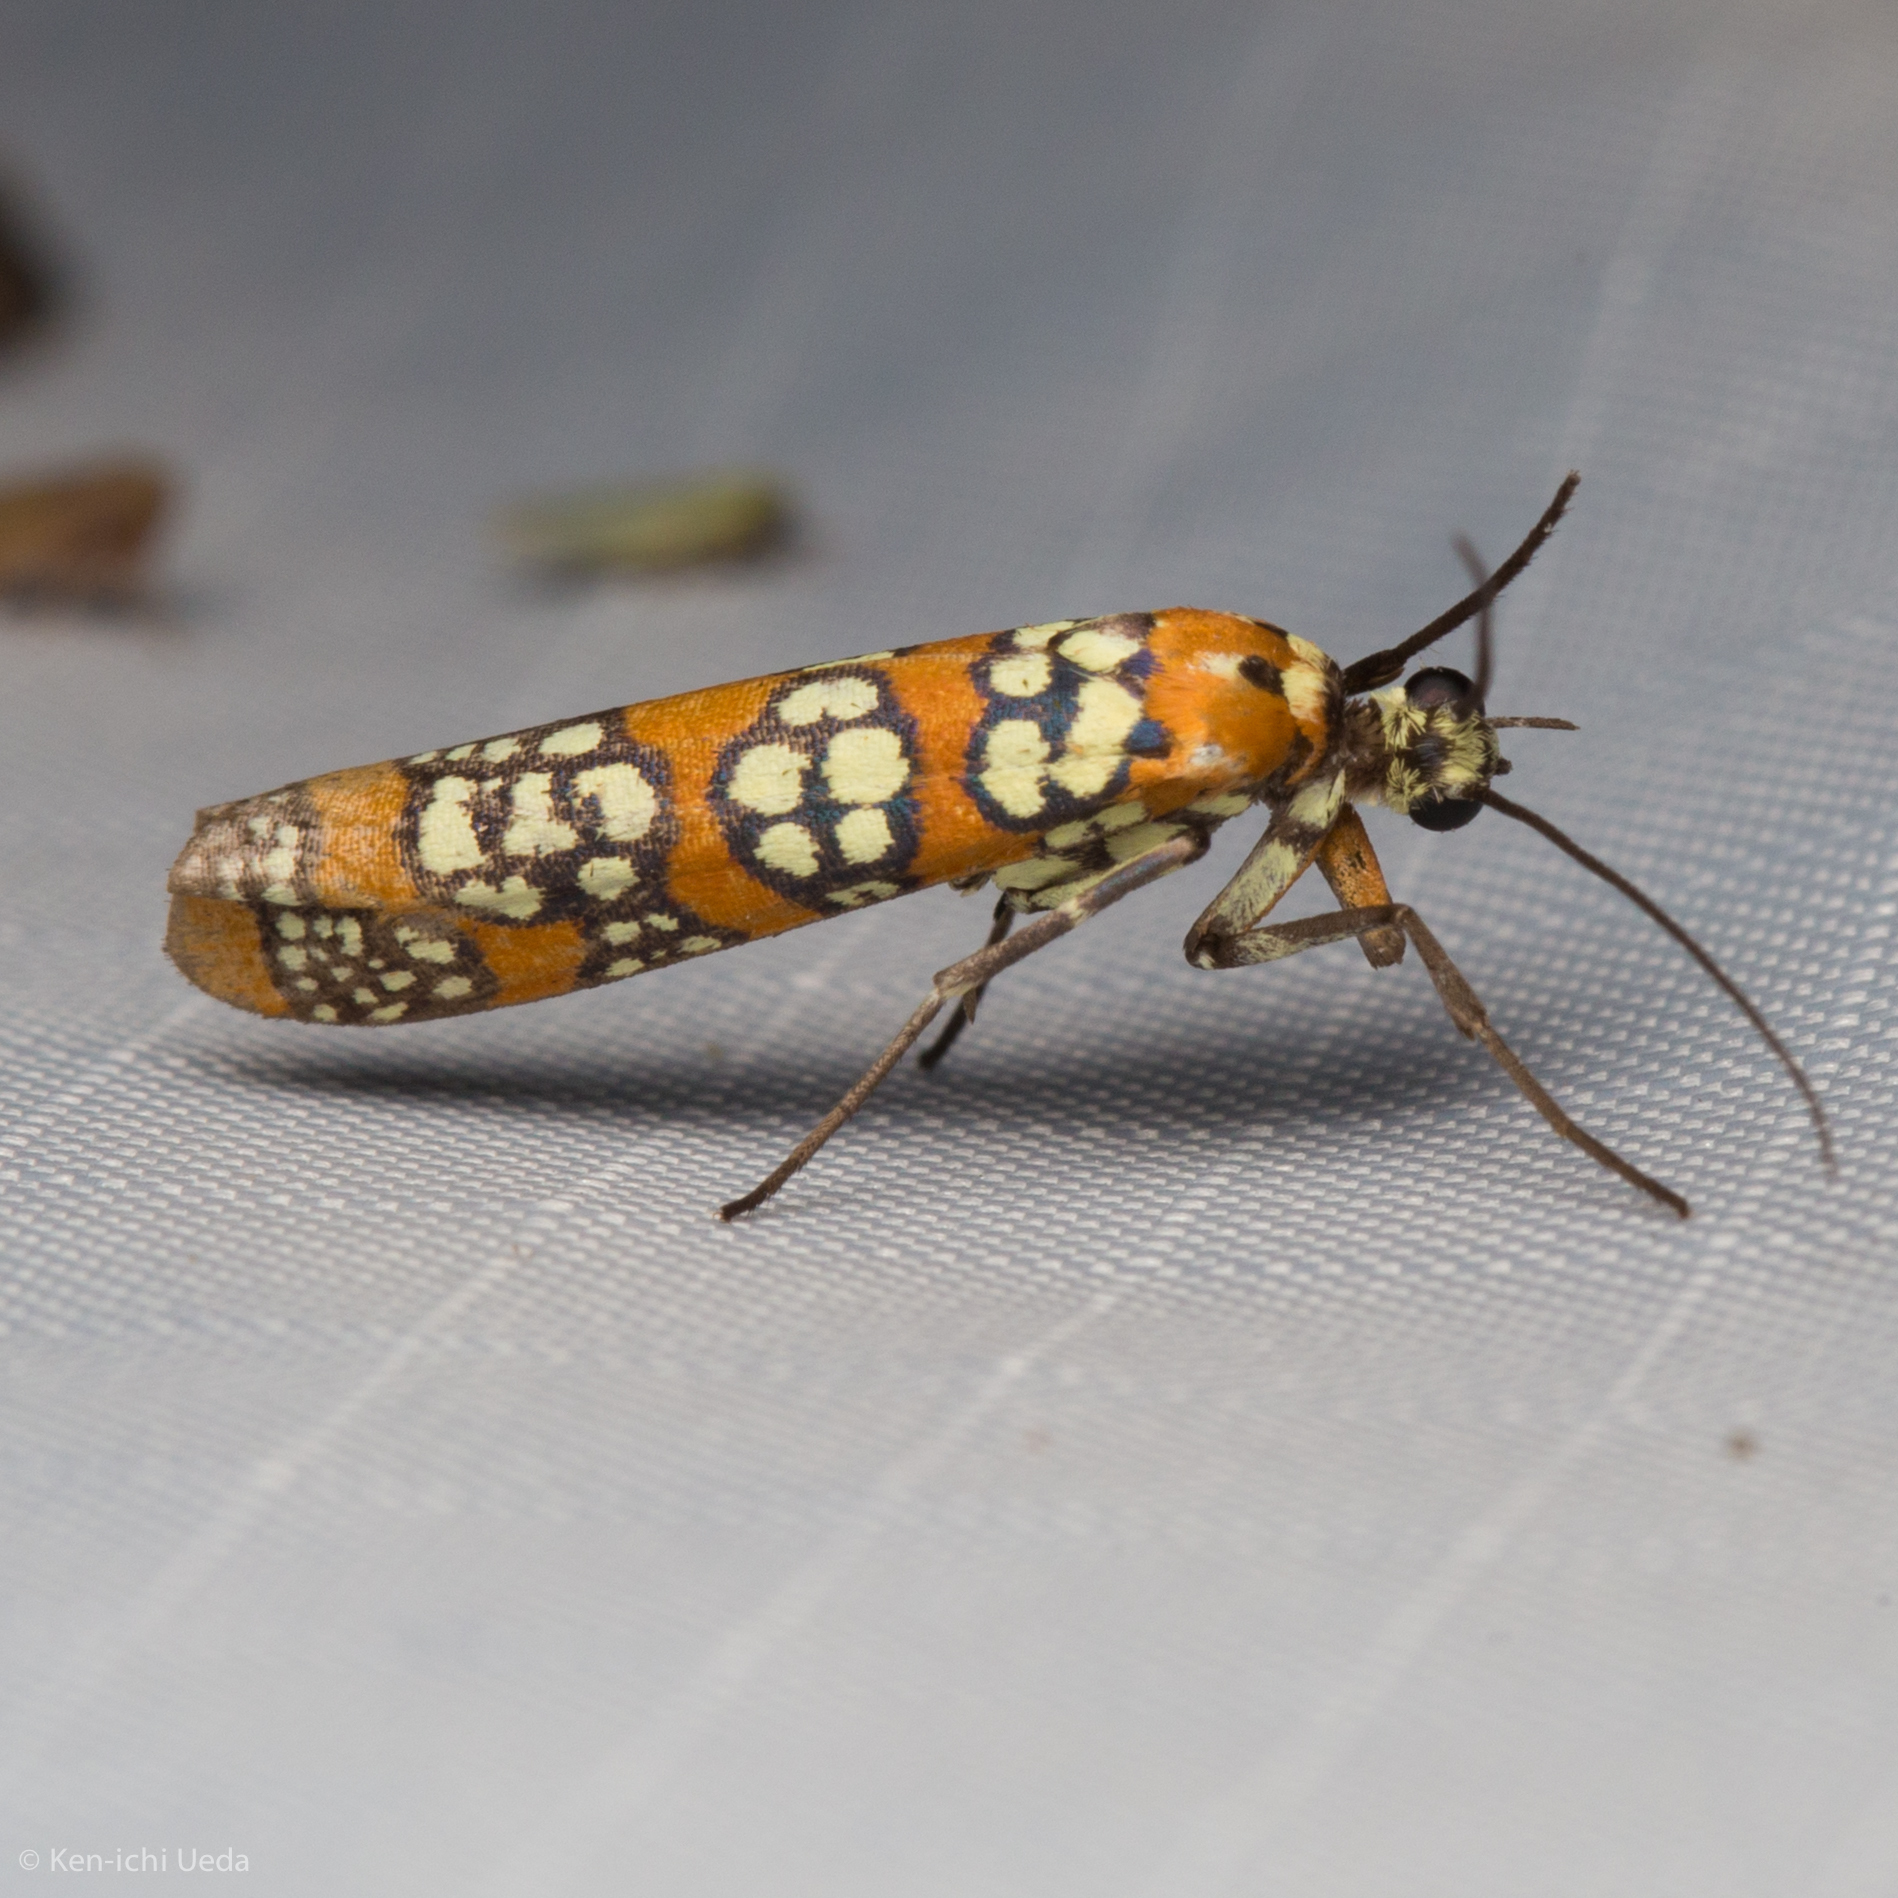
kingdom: Animalia
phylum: Arthropoda
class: Insecta
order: Lepidoptera
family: Attevidae
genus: Atteva
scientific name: Atteva punctella
